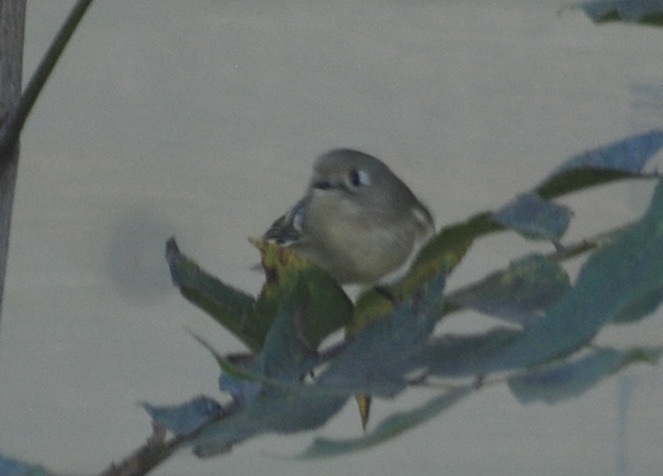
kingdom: Animalia
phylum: Chordata
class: Aves
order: Passeriformes
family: Regulidae
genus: Regulus
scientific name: Regulus calendula
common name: Ruby-crowned kinglet
